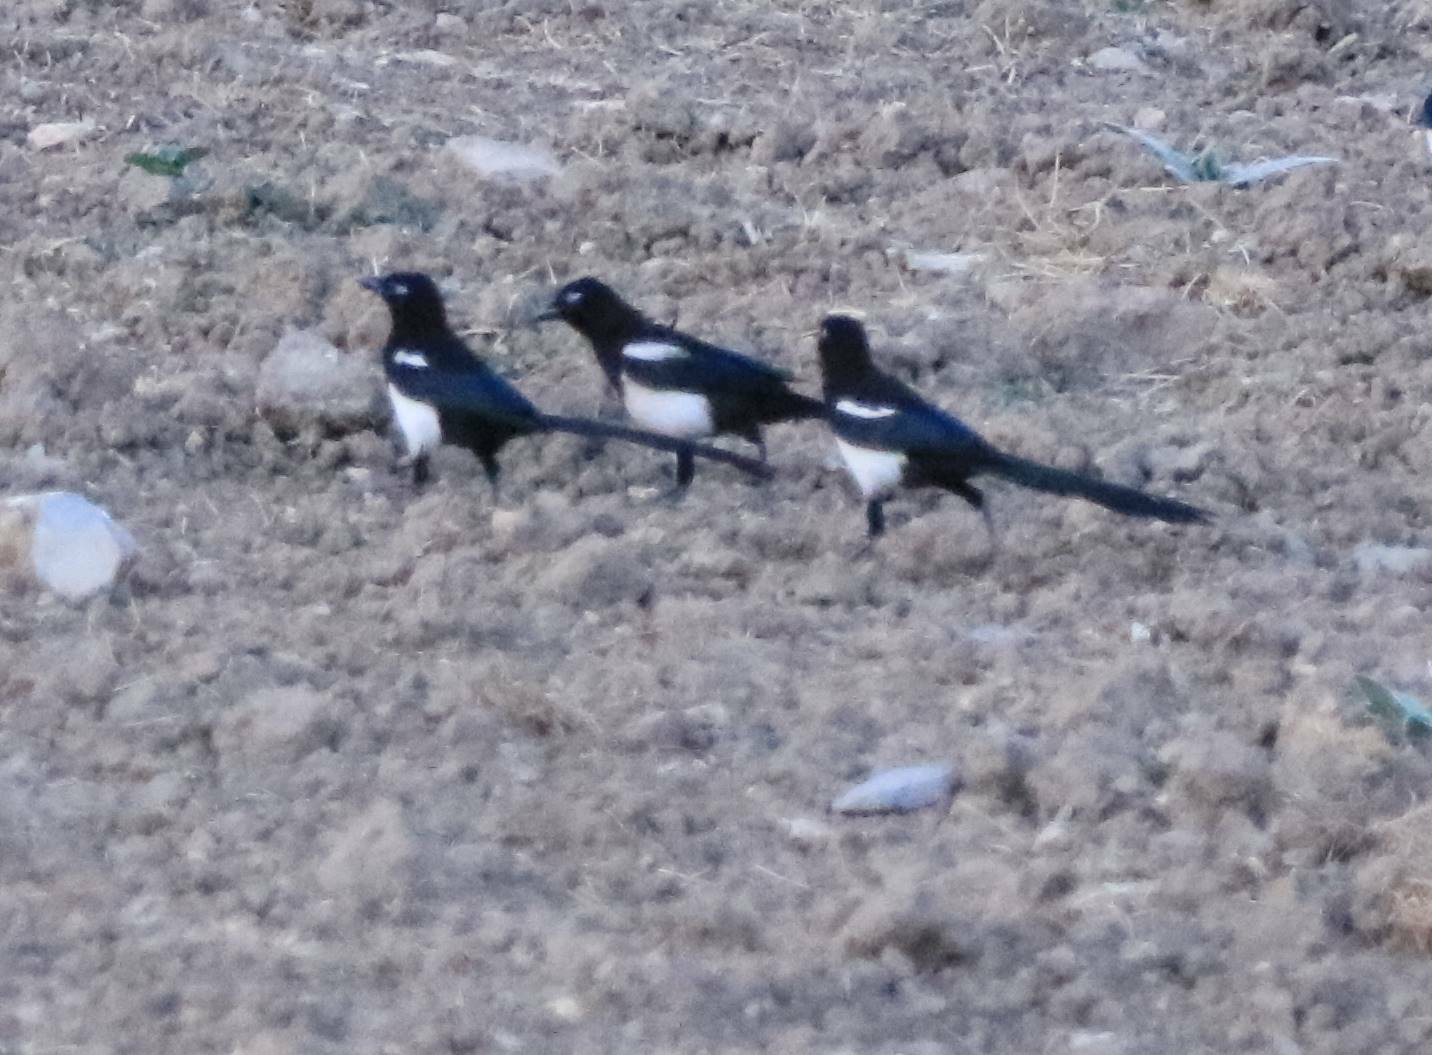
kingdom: Animalia
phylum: Chordata
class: Aves
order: Passeriformes
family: Corvidae
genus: Pica
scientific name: Pica mauritanica
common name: Maghreb magpie
